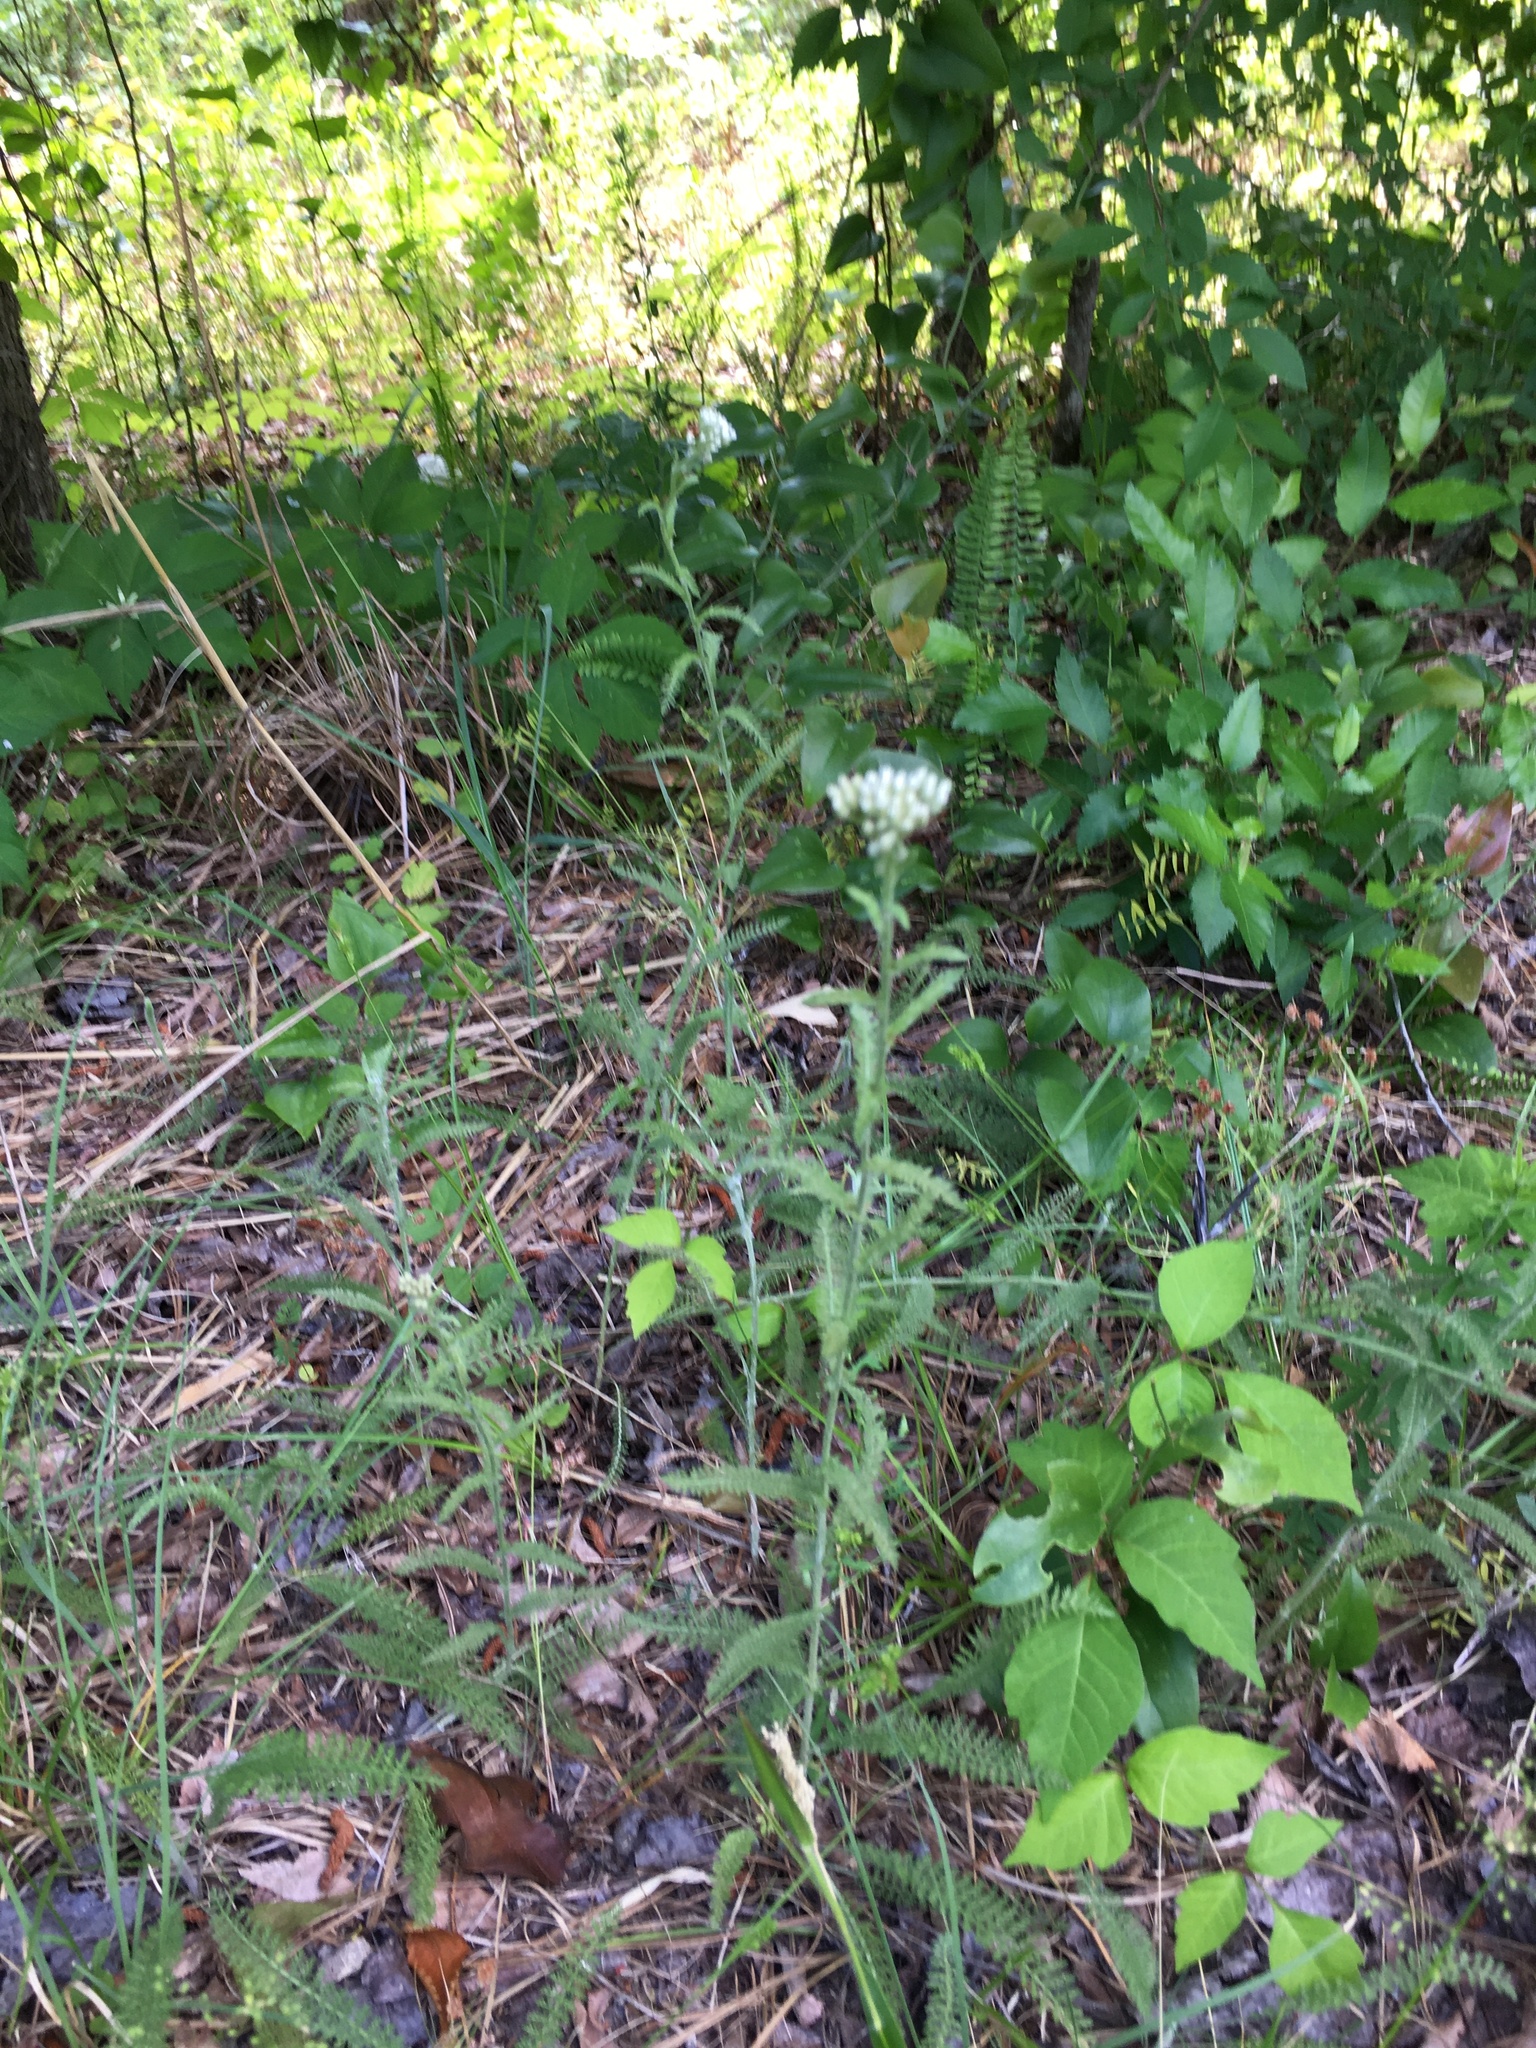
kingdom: Plantae
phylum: Tracheophyta
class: Magnoliopsida
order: Asterales
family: Asteraceae
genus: Achillea
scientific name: Achillea millefolium
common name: Yarrow
